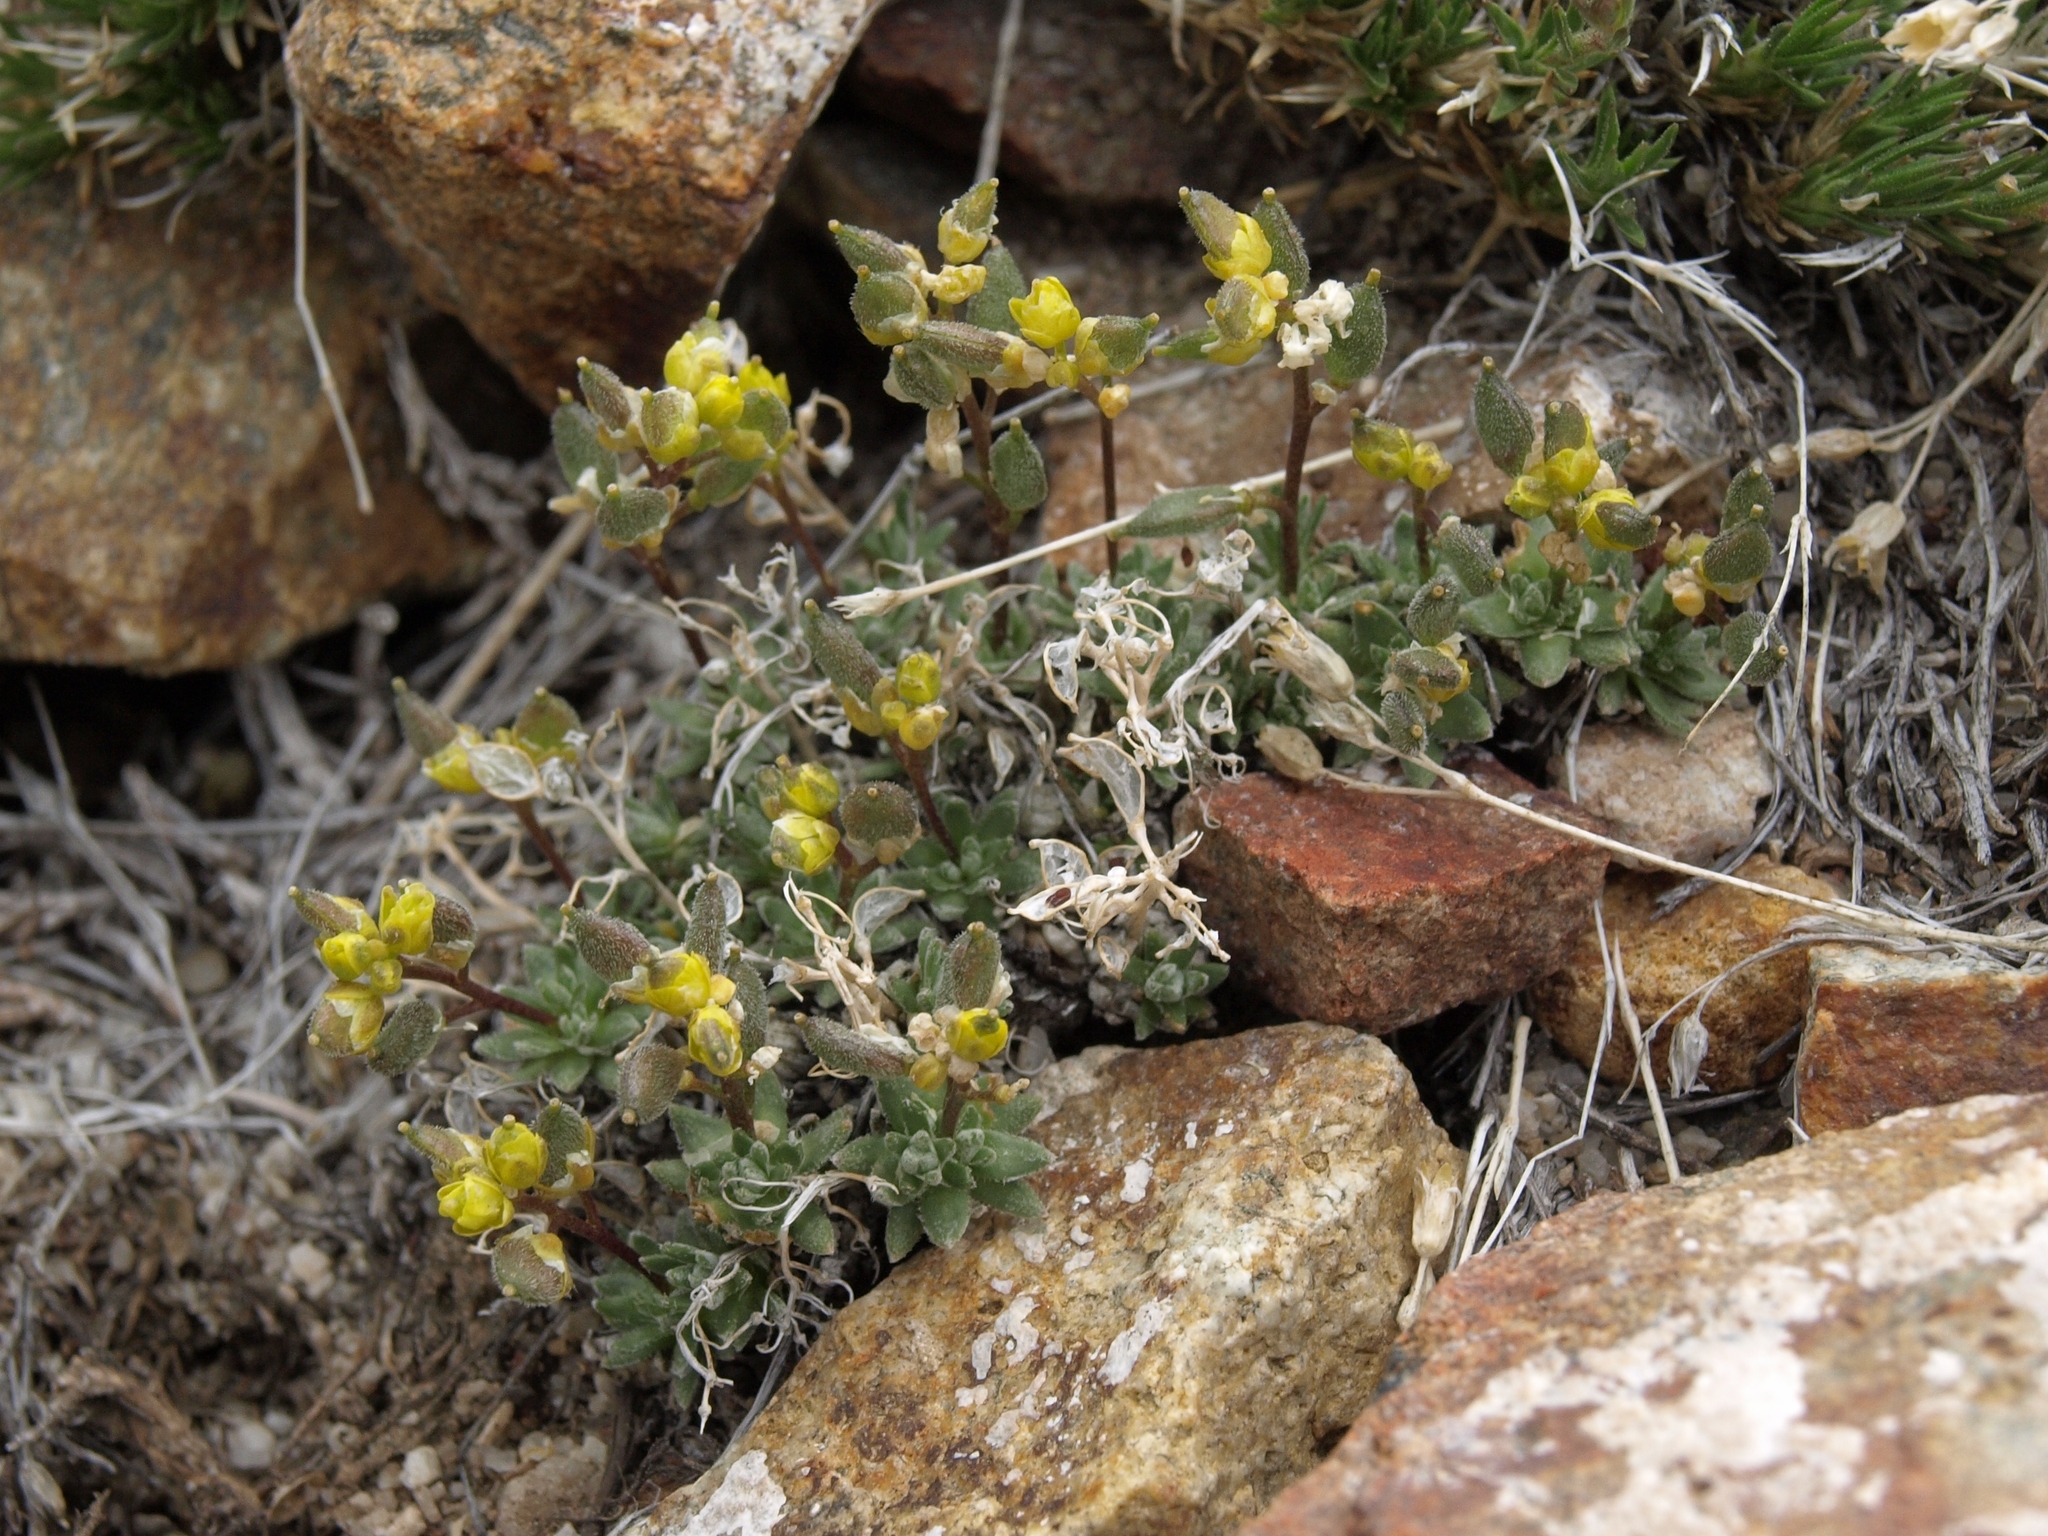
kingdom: Plantae
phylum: Tracheophyta
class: Magnoliopsida
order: Brassicales
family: Brassicaceae
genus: Draba
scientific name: Draba oligosperma
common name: Few-seed draba
